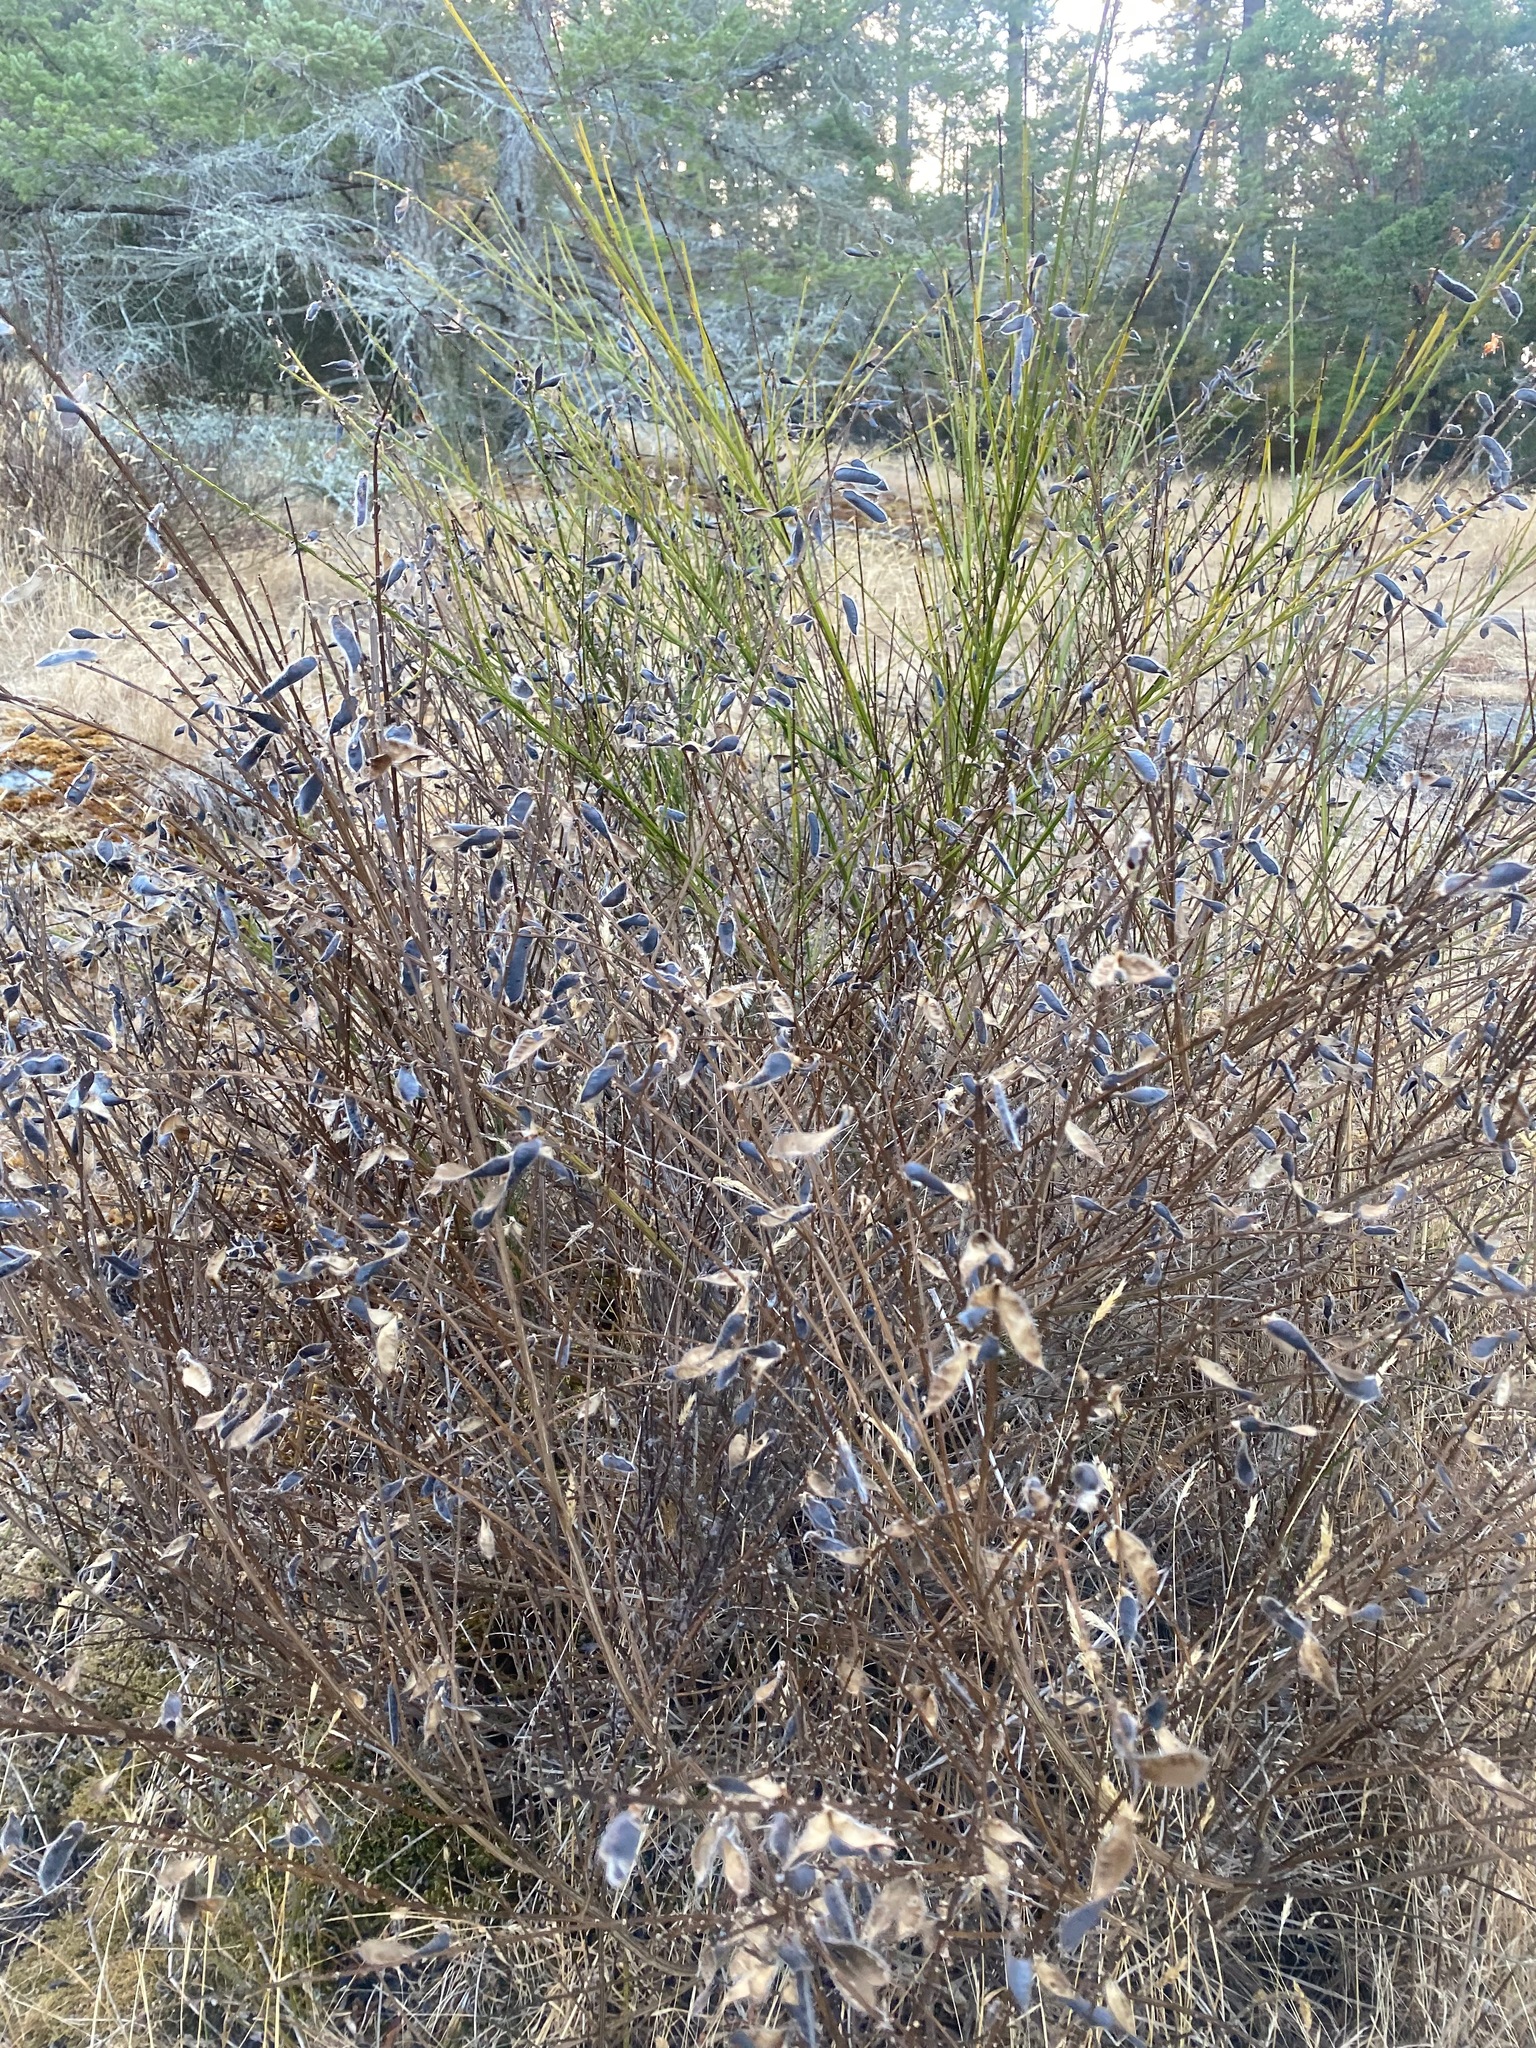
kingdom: Plantae
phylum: Tracheophyta
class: Magnoliopsida
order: Fabales
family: Fabaceae
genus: Cytisus
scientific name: Cytisus scoparius
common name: Scotch broom
